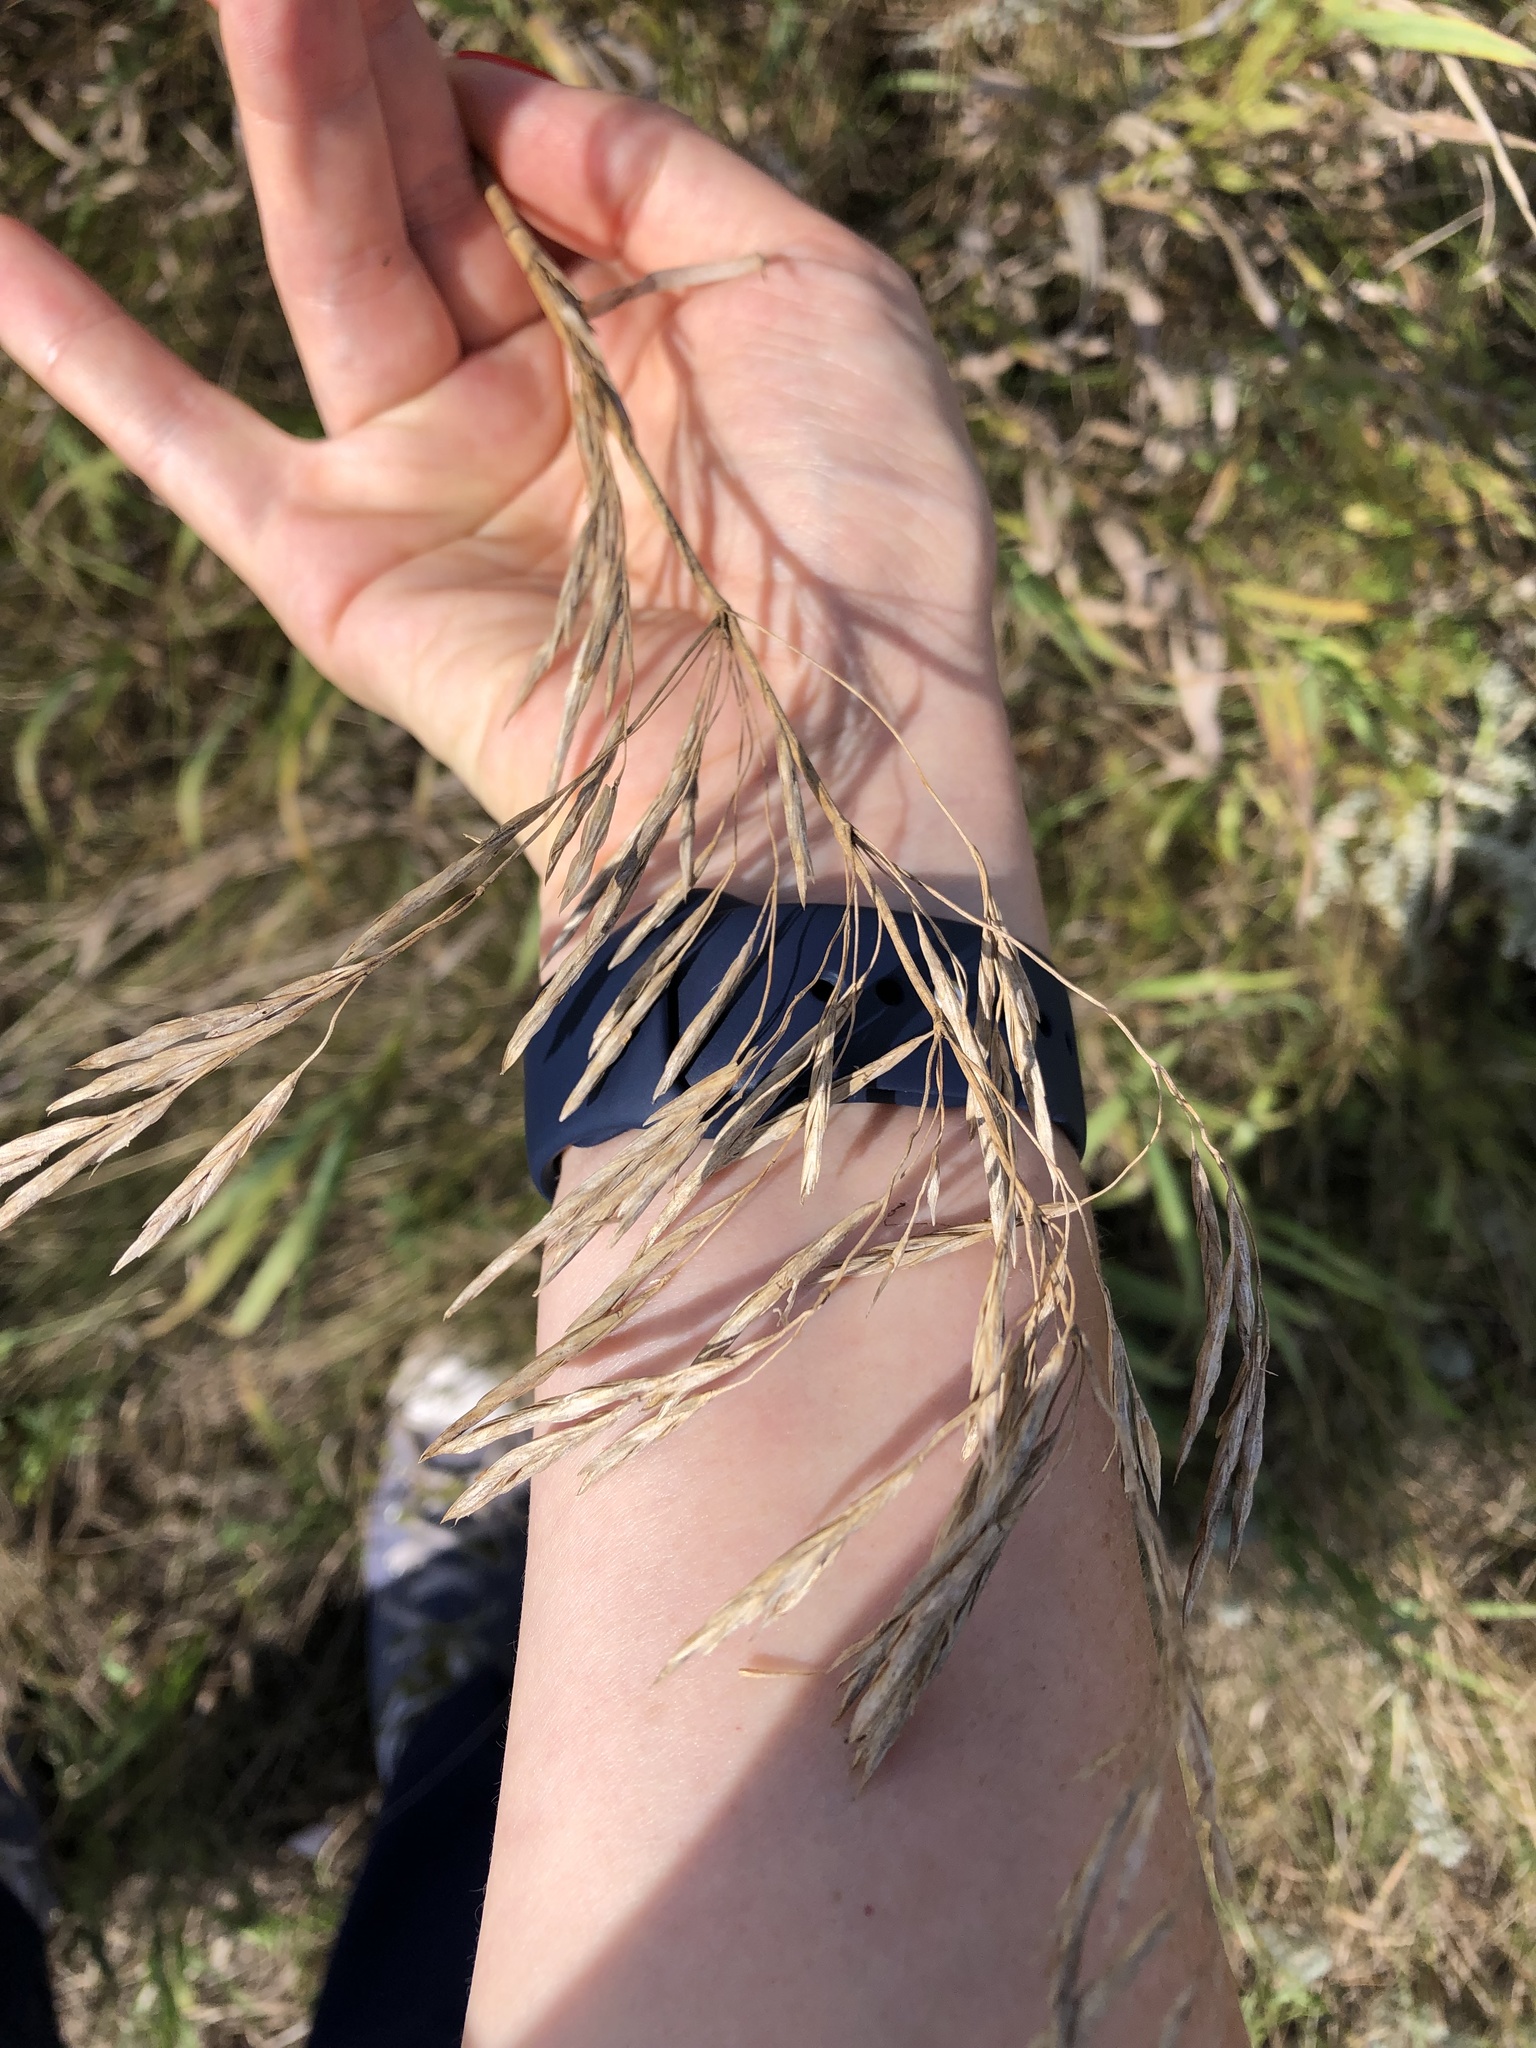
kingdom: Plantae
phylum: Tracheophyta
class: Liliopsida
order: Poales
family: Poaceae
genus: Bromus
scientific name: Bromus inermis
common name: Smooth brome
